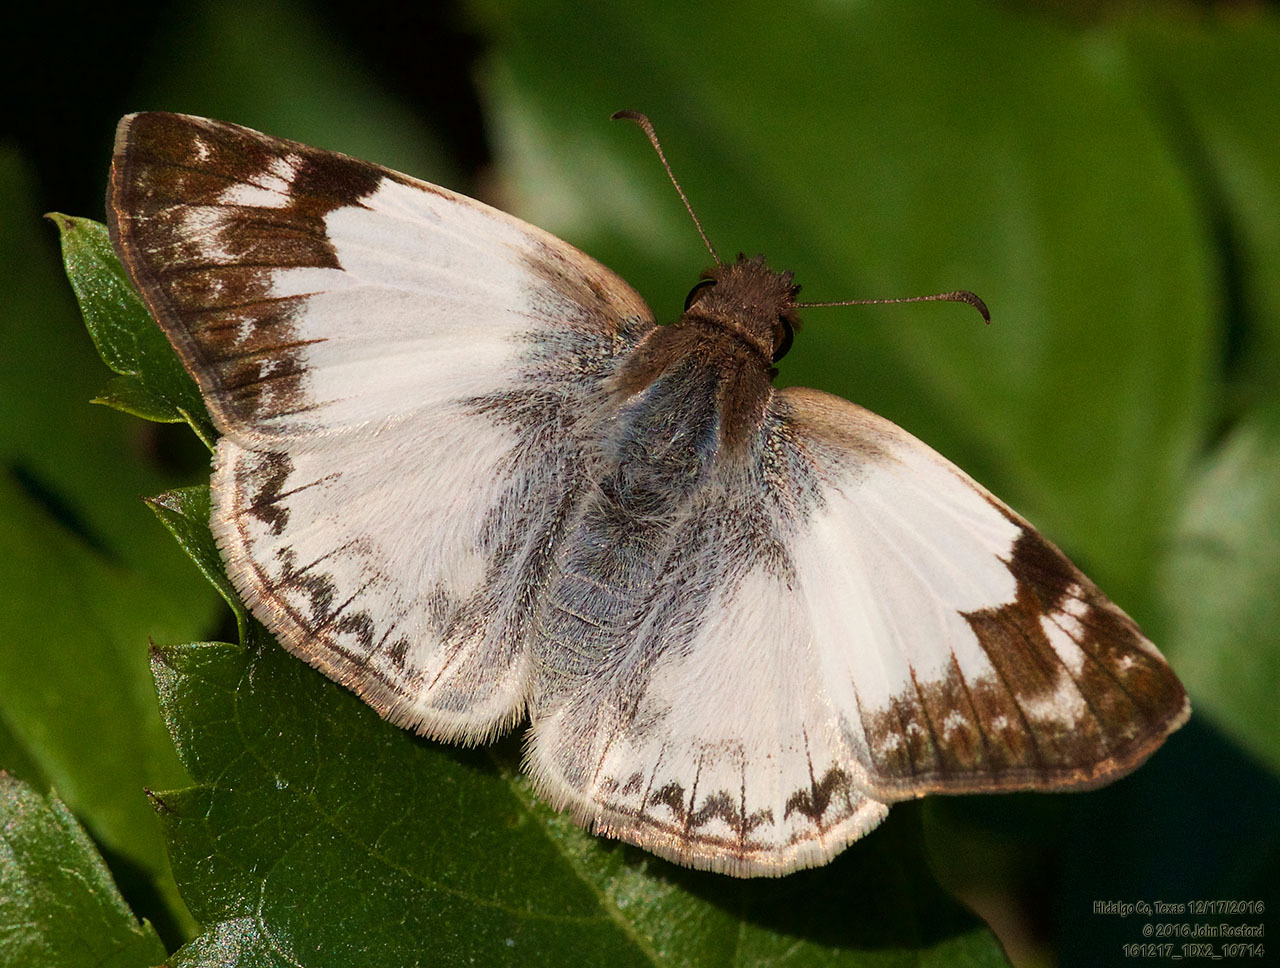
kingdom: Animalia
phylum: Arthropoda
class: Insecta
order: Lepidoptera
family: Hesperiidae
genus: Heliopetes
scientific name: Heliopetes laviana
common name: Laviana white-skipper
